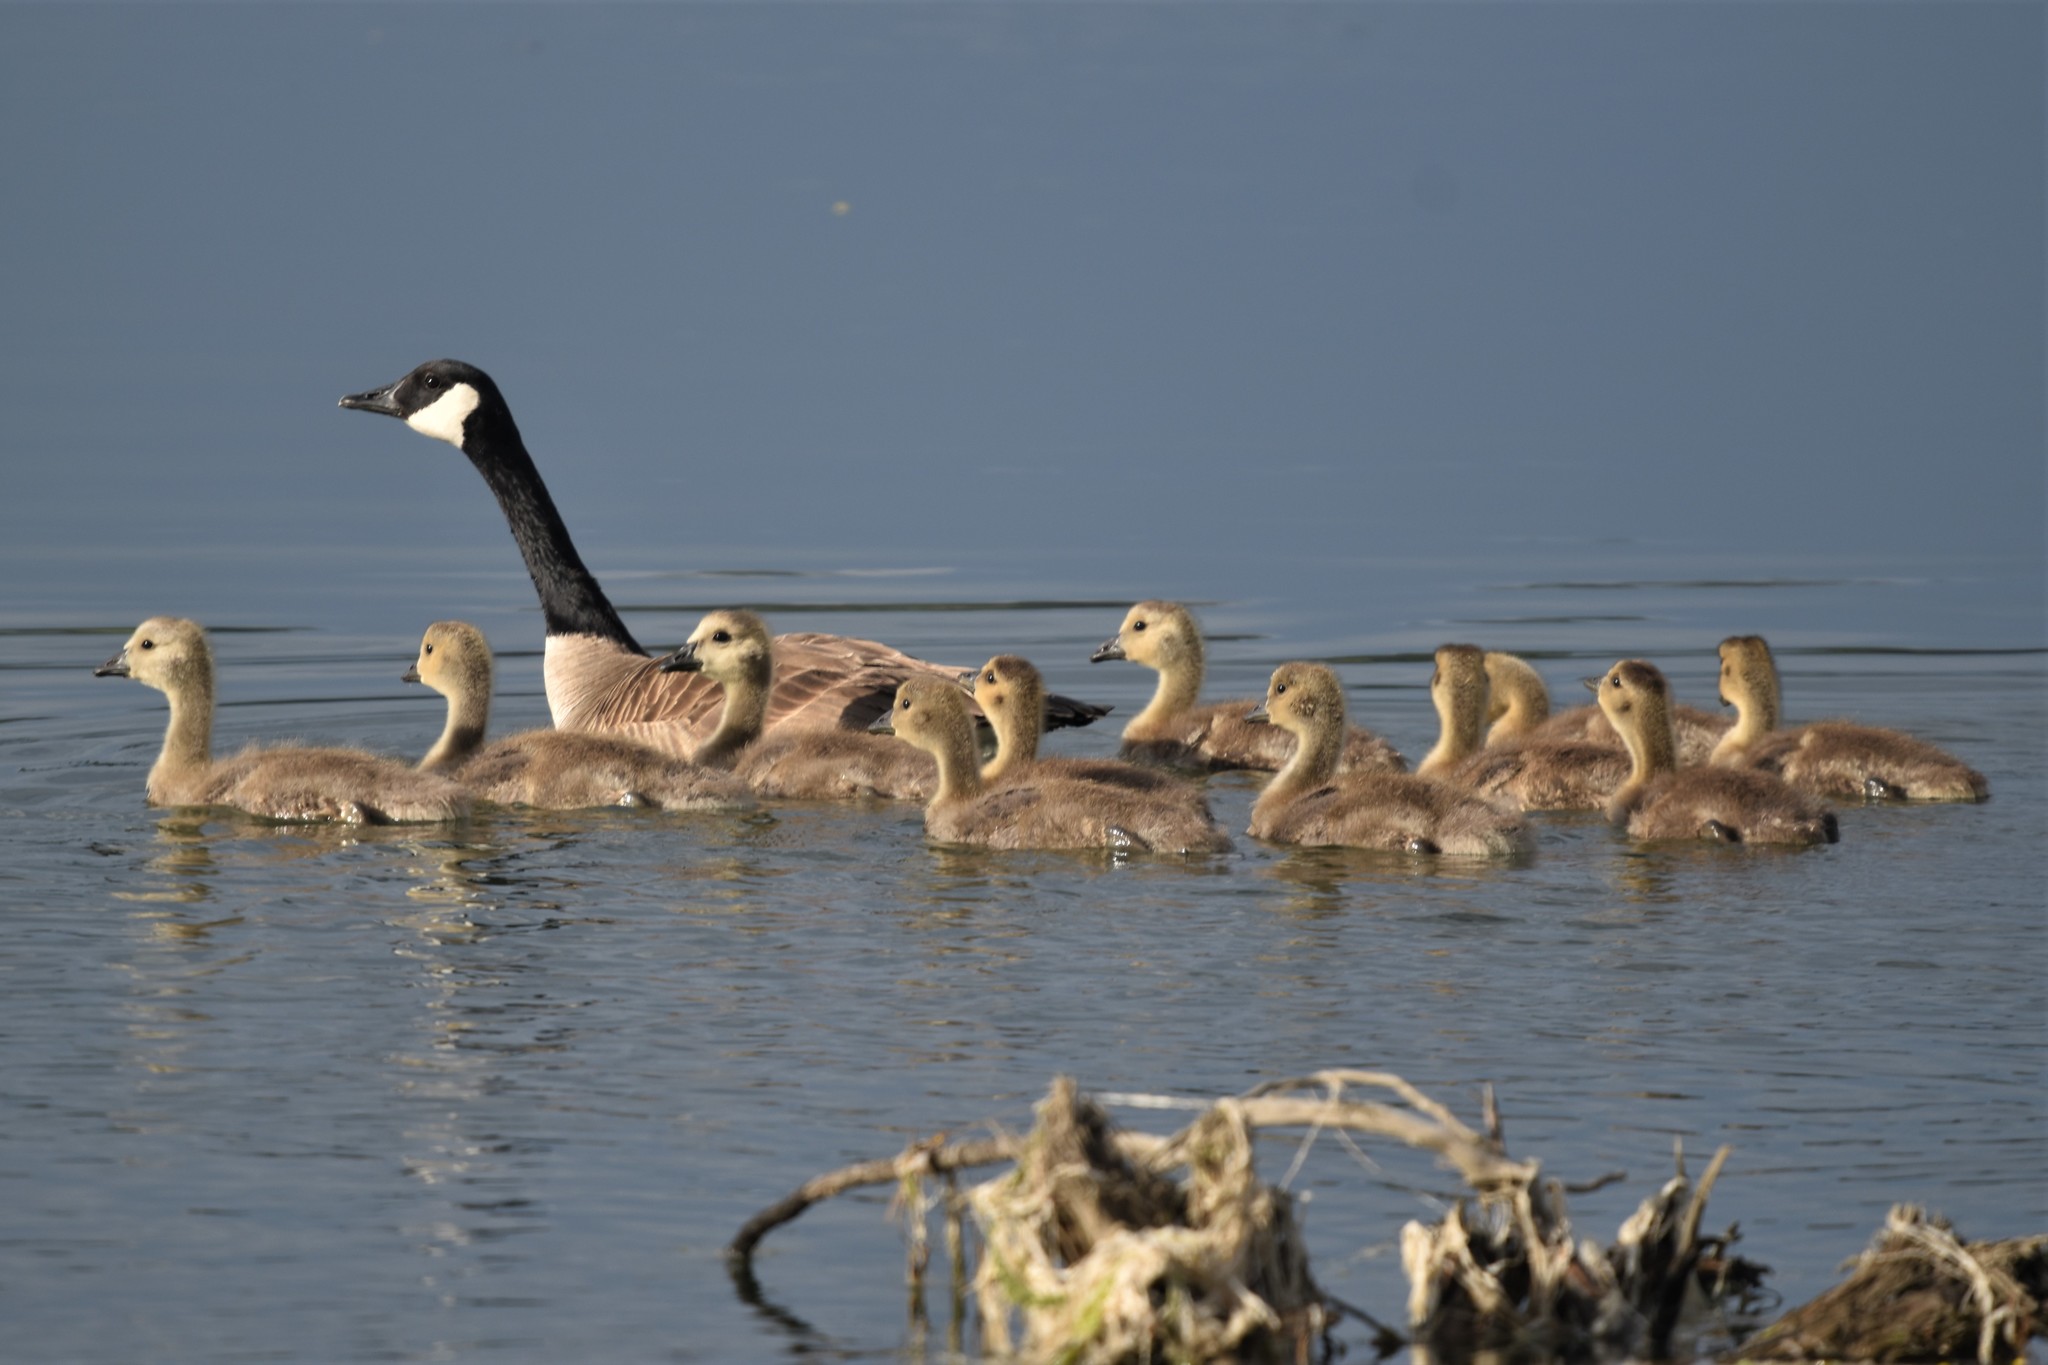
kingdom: Animalia
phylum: Chordata
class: Aves
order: Anseriformes
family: Anatidae
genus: Branta
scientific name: Branta canadensis
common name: Canada goose
